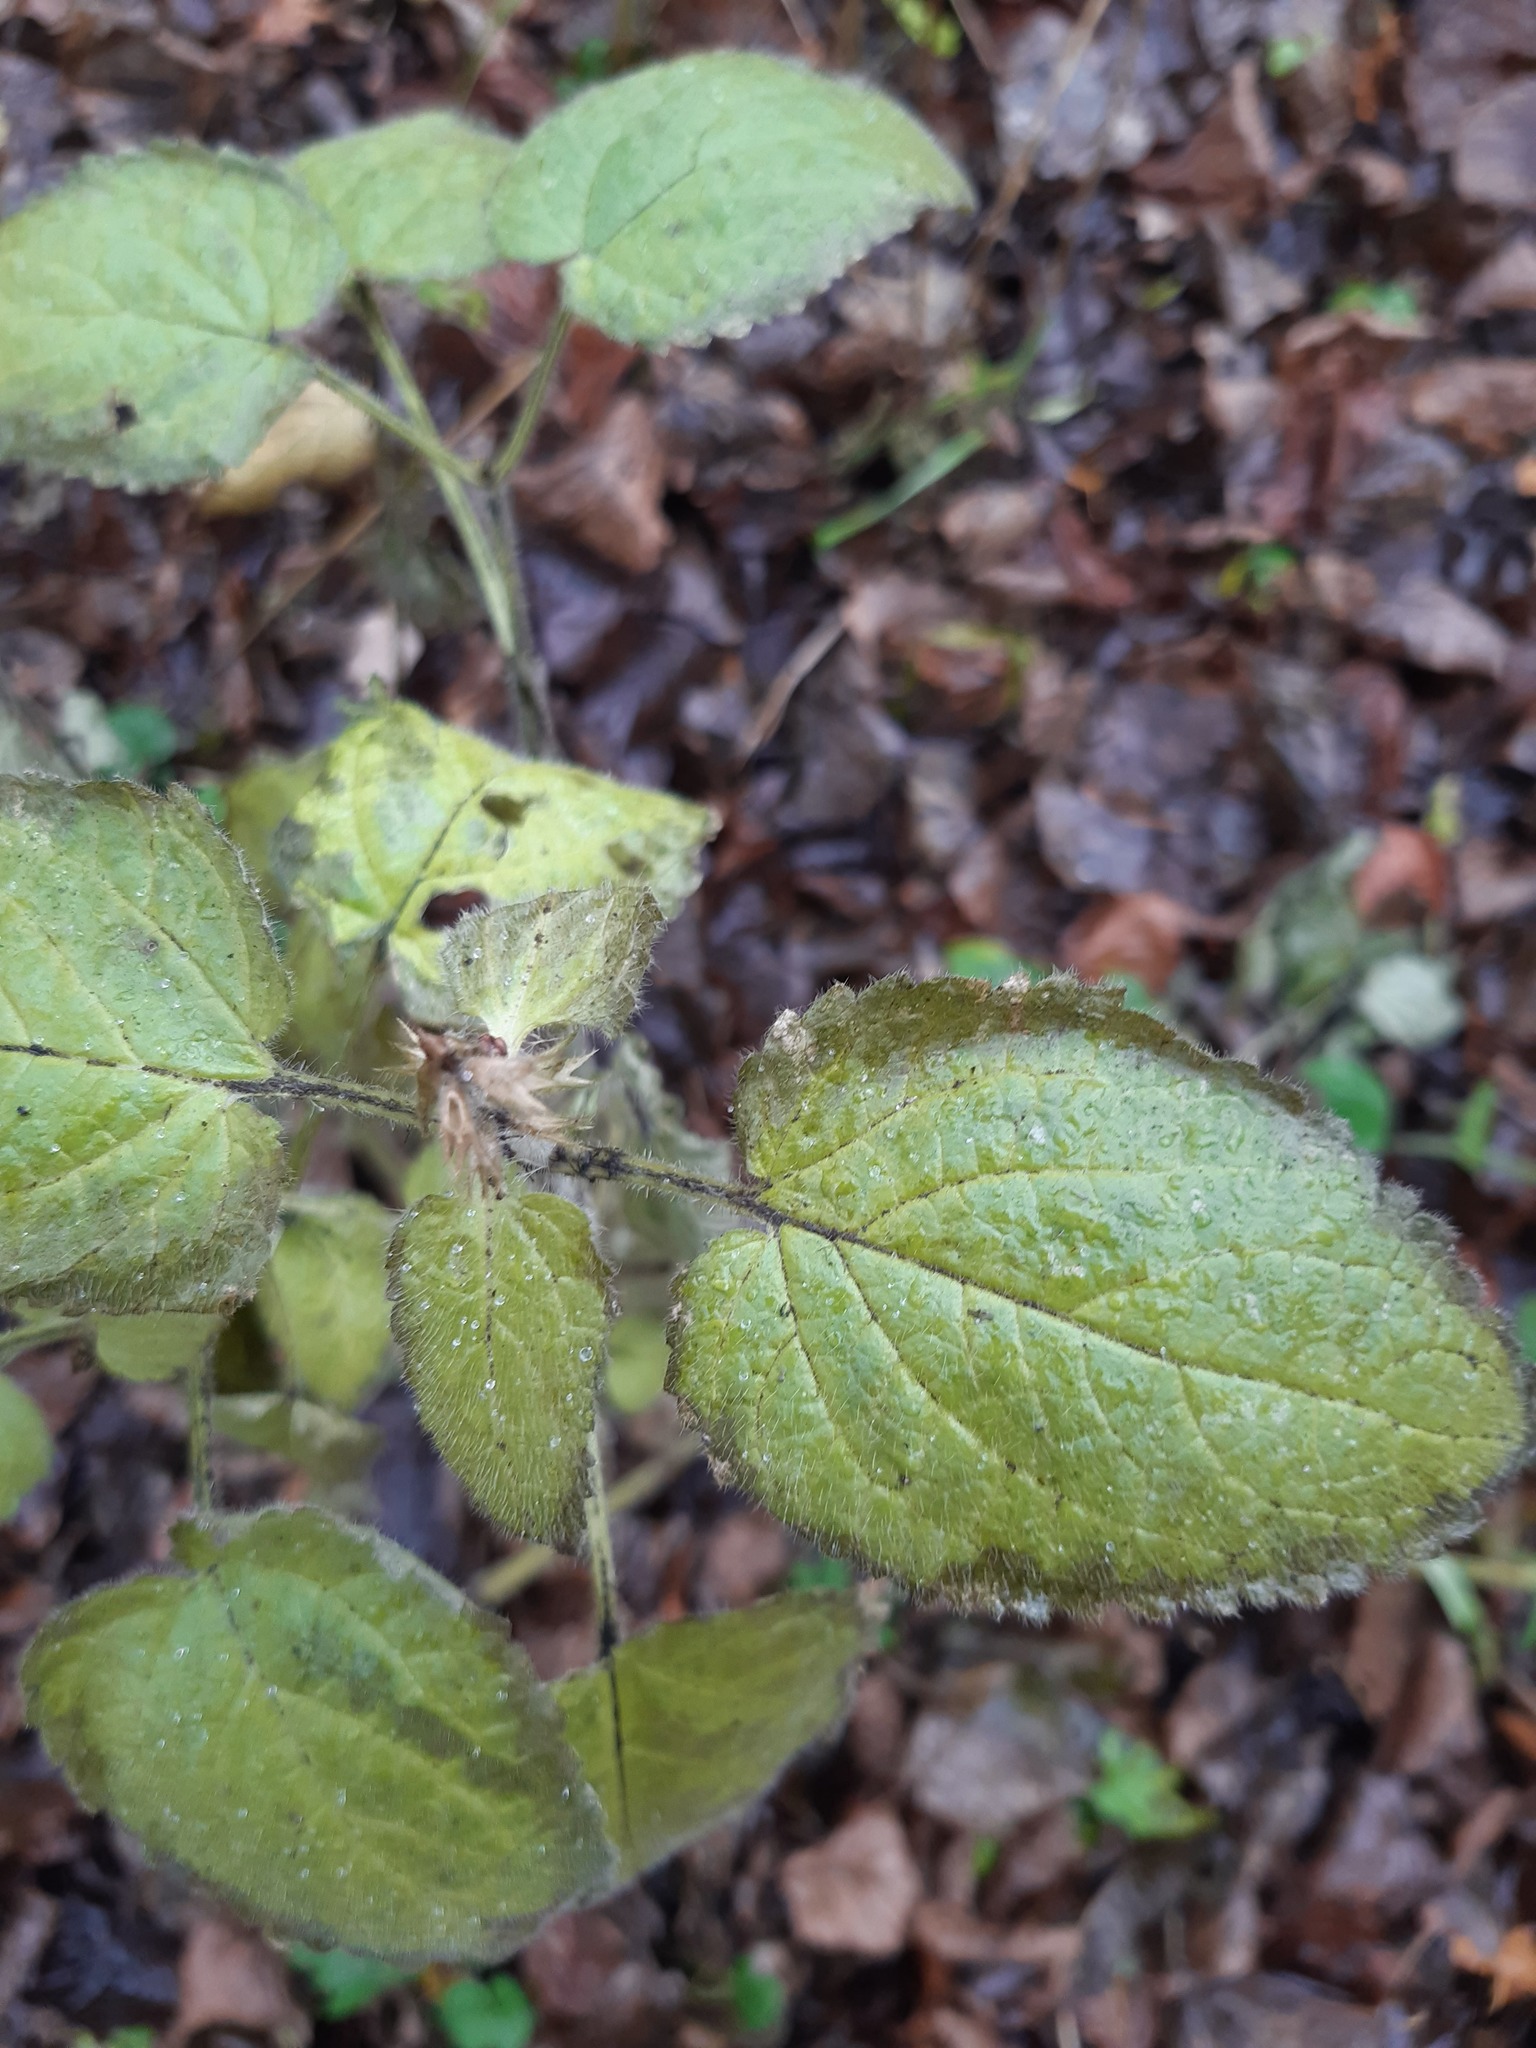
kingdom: Plantae
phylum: Tracheophyta
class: Magnoliopsida
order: Lamiales
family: Lamiaceae
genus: Stachys
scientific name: Stachys sylvatica
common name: Hedge woundwort
